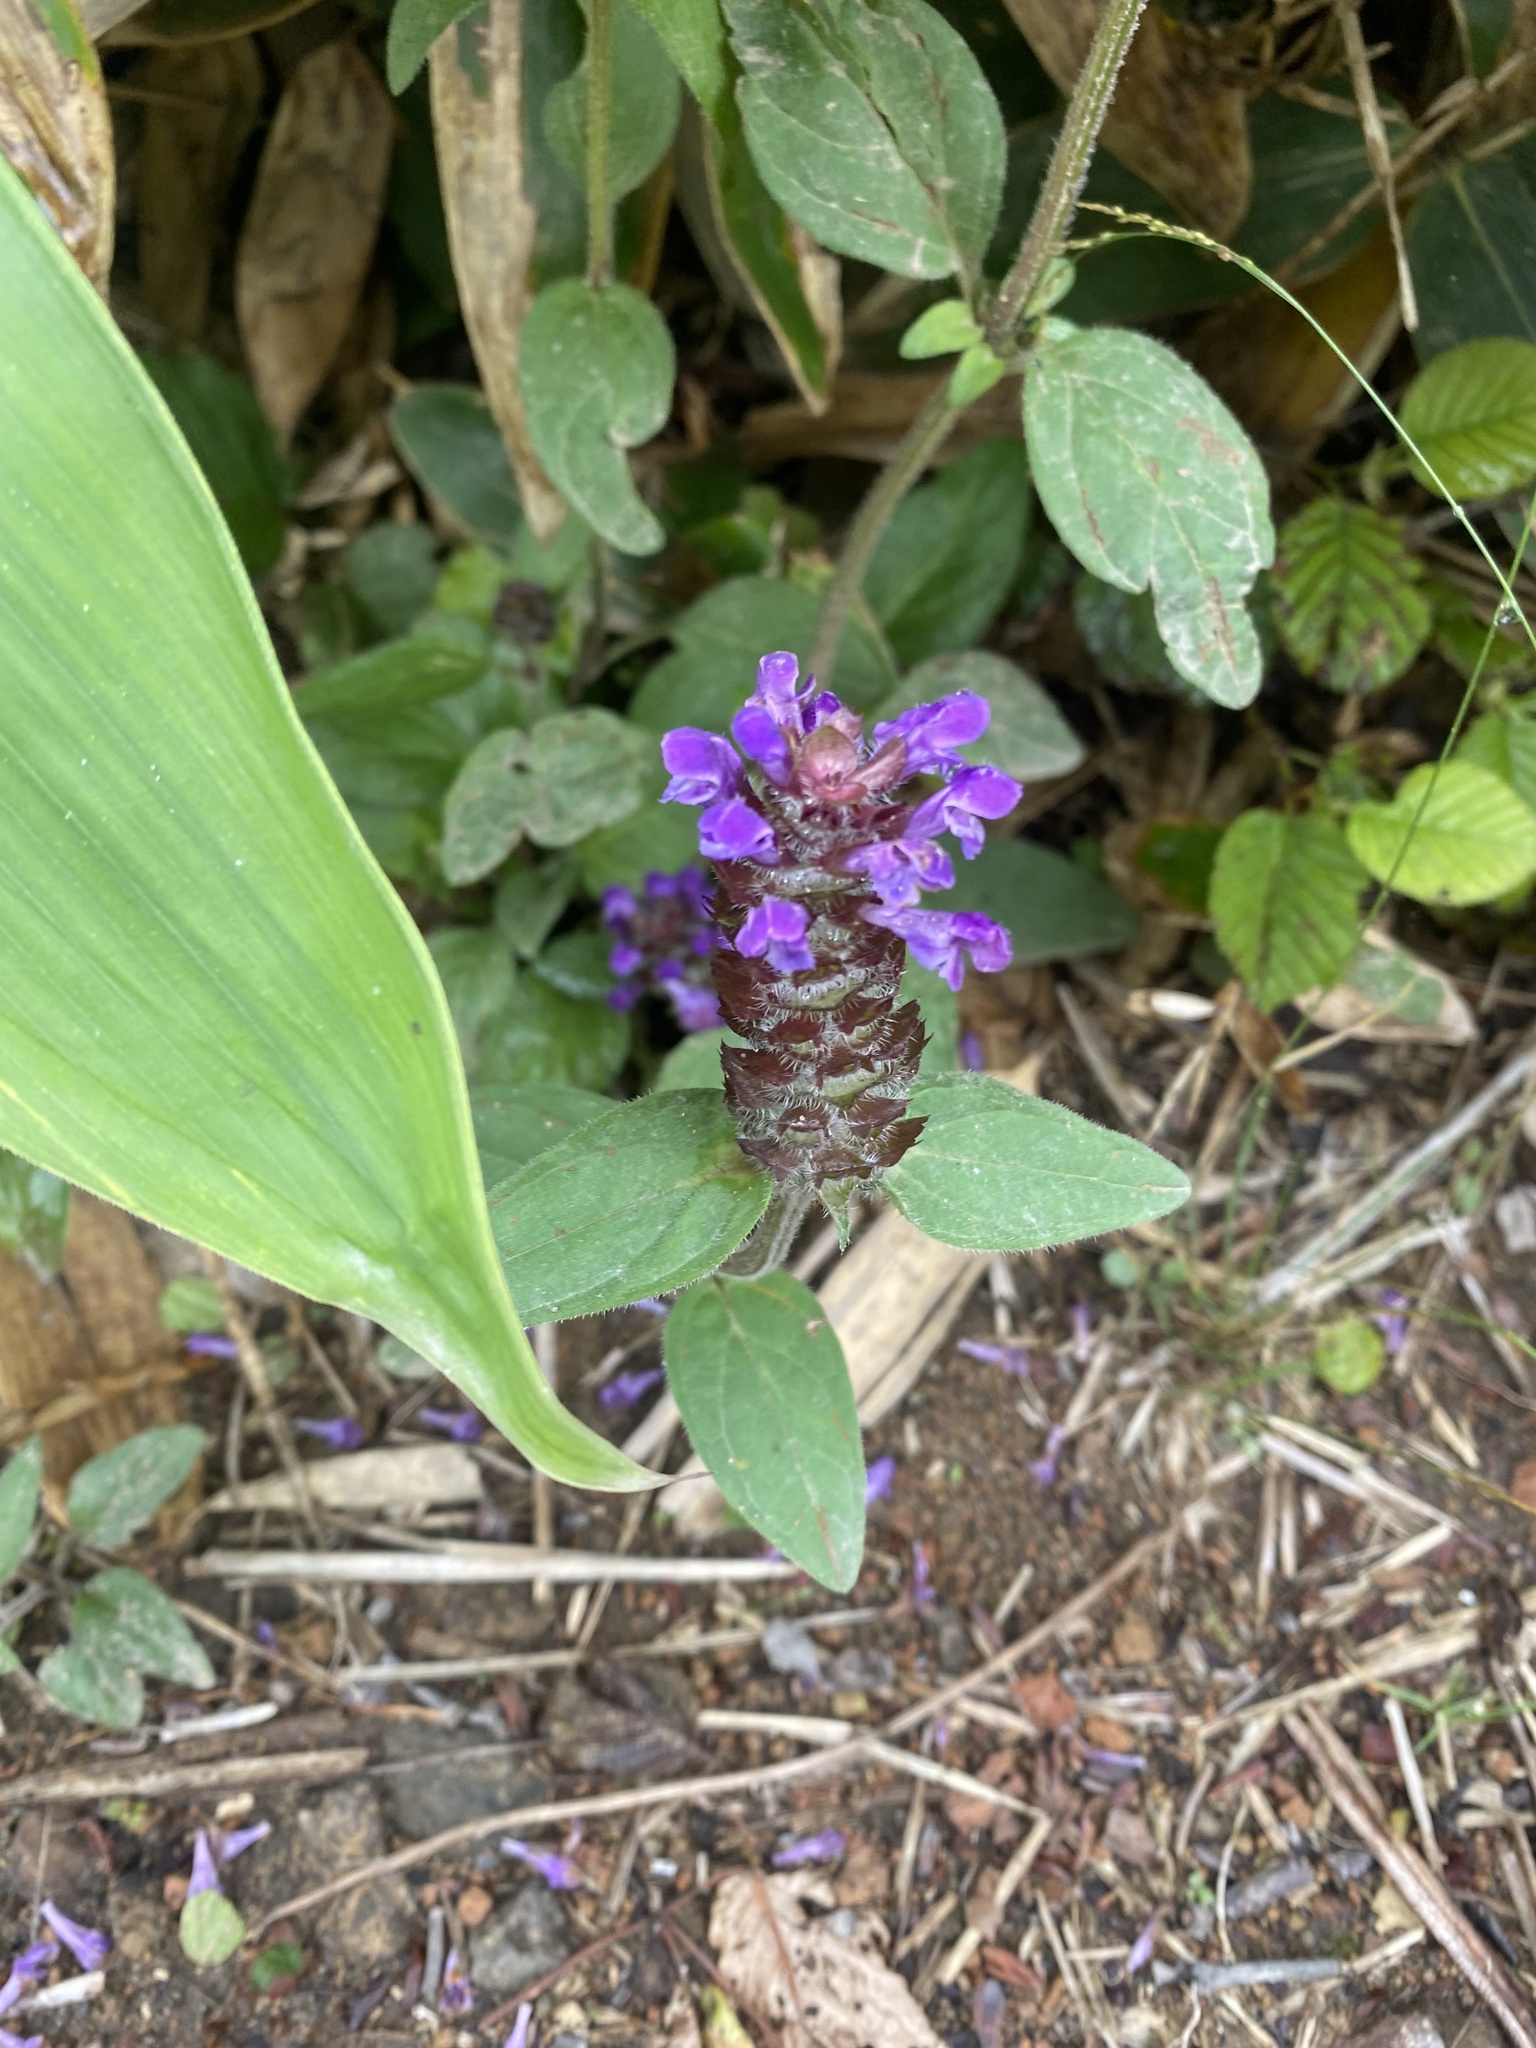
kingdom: Plantae
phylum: Tracheophyta
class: Magnoliopsida
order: Lamiales
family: Lamiaceae
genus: Prunella
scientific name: Prunella vulgaris
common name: Heal-all
